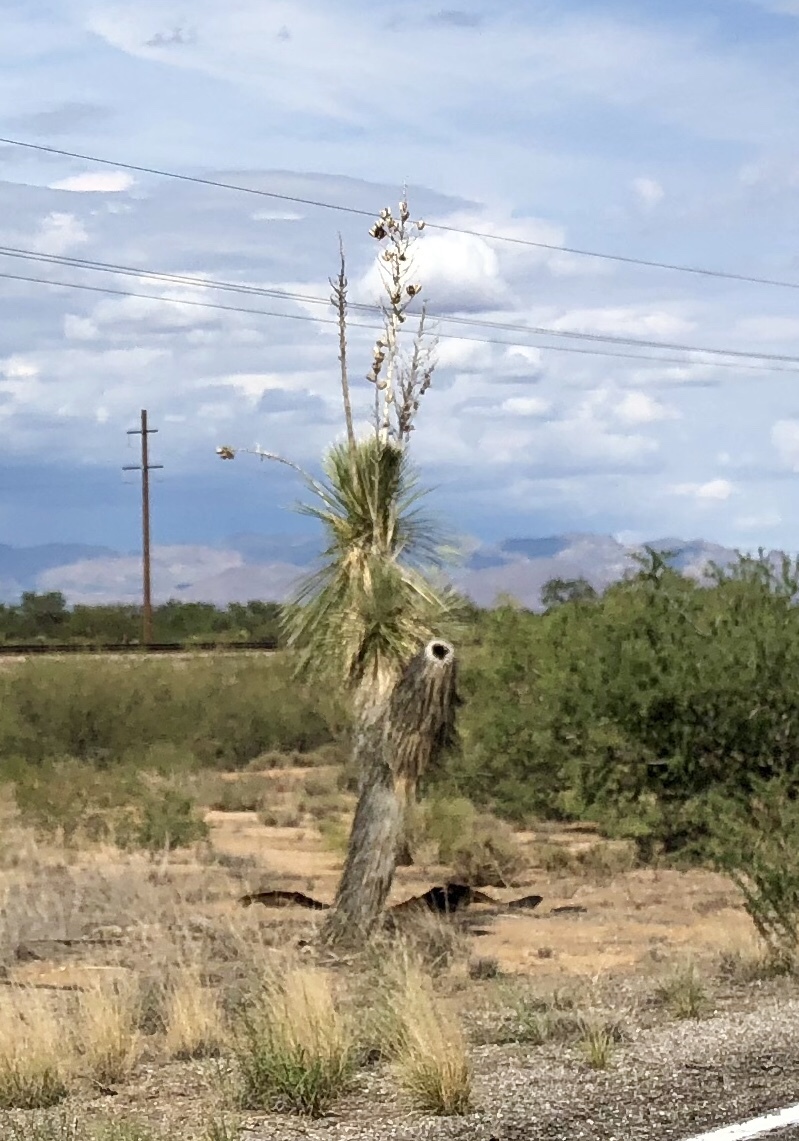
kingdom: Plantae
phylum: Tracheophyta
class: Liliopsida
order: Asparagales
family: Asparagaceae
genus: Yucca
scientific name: Yucca elata
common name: Palmella
